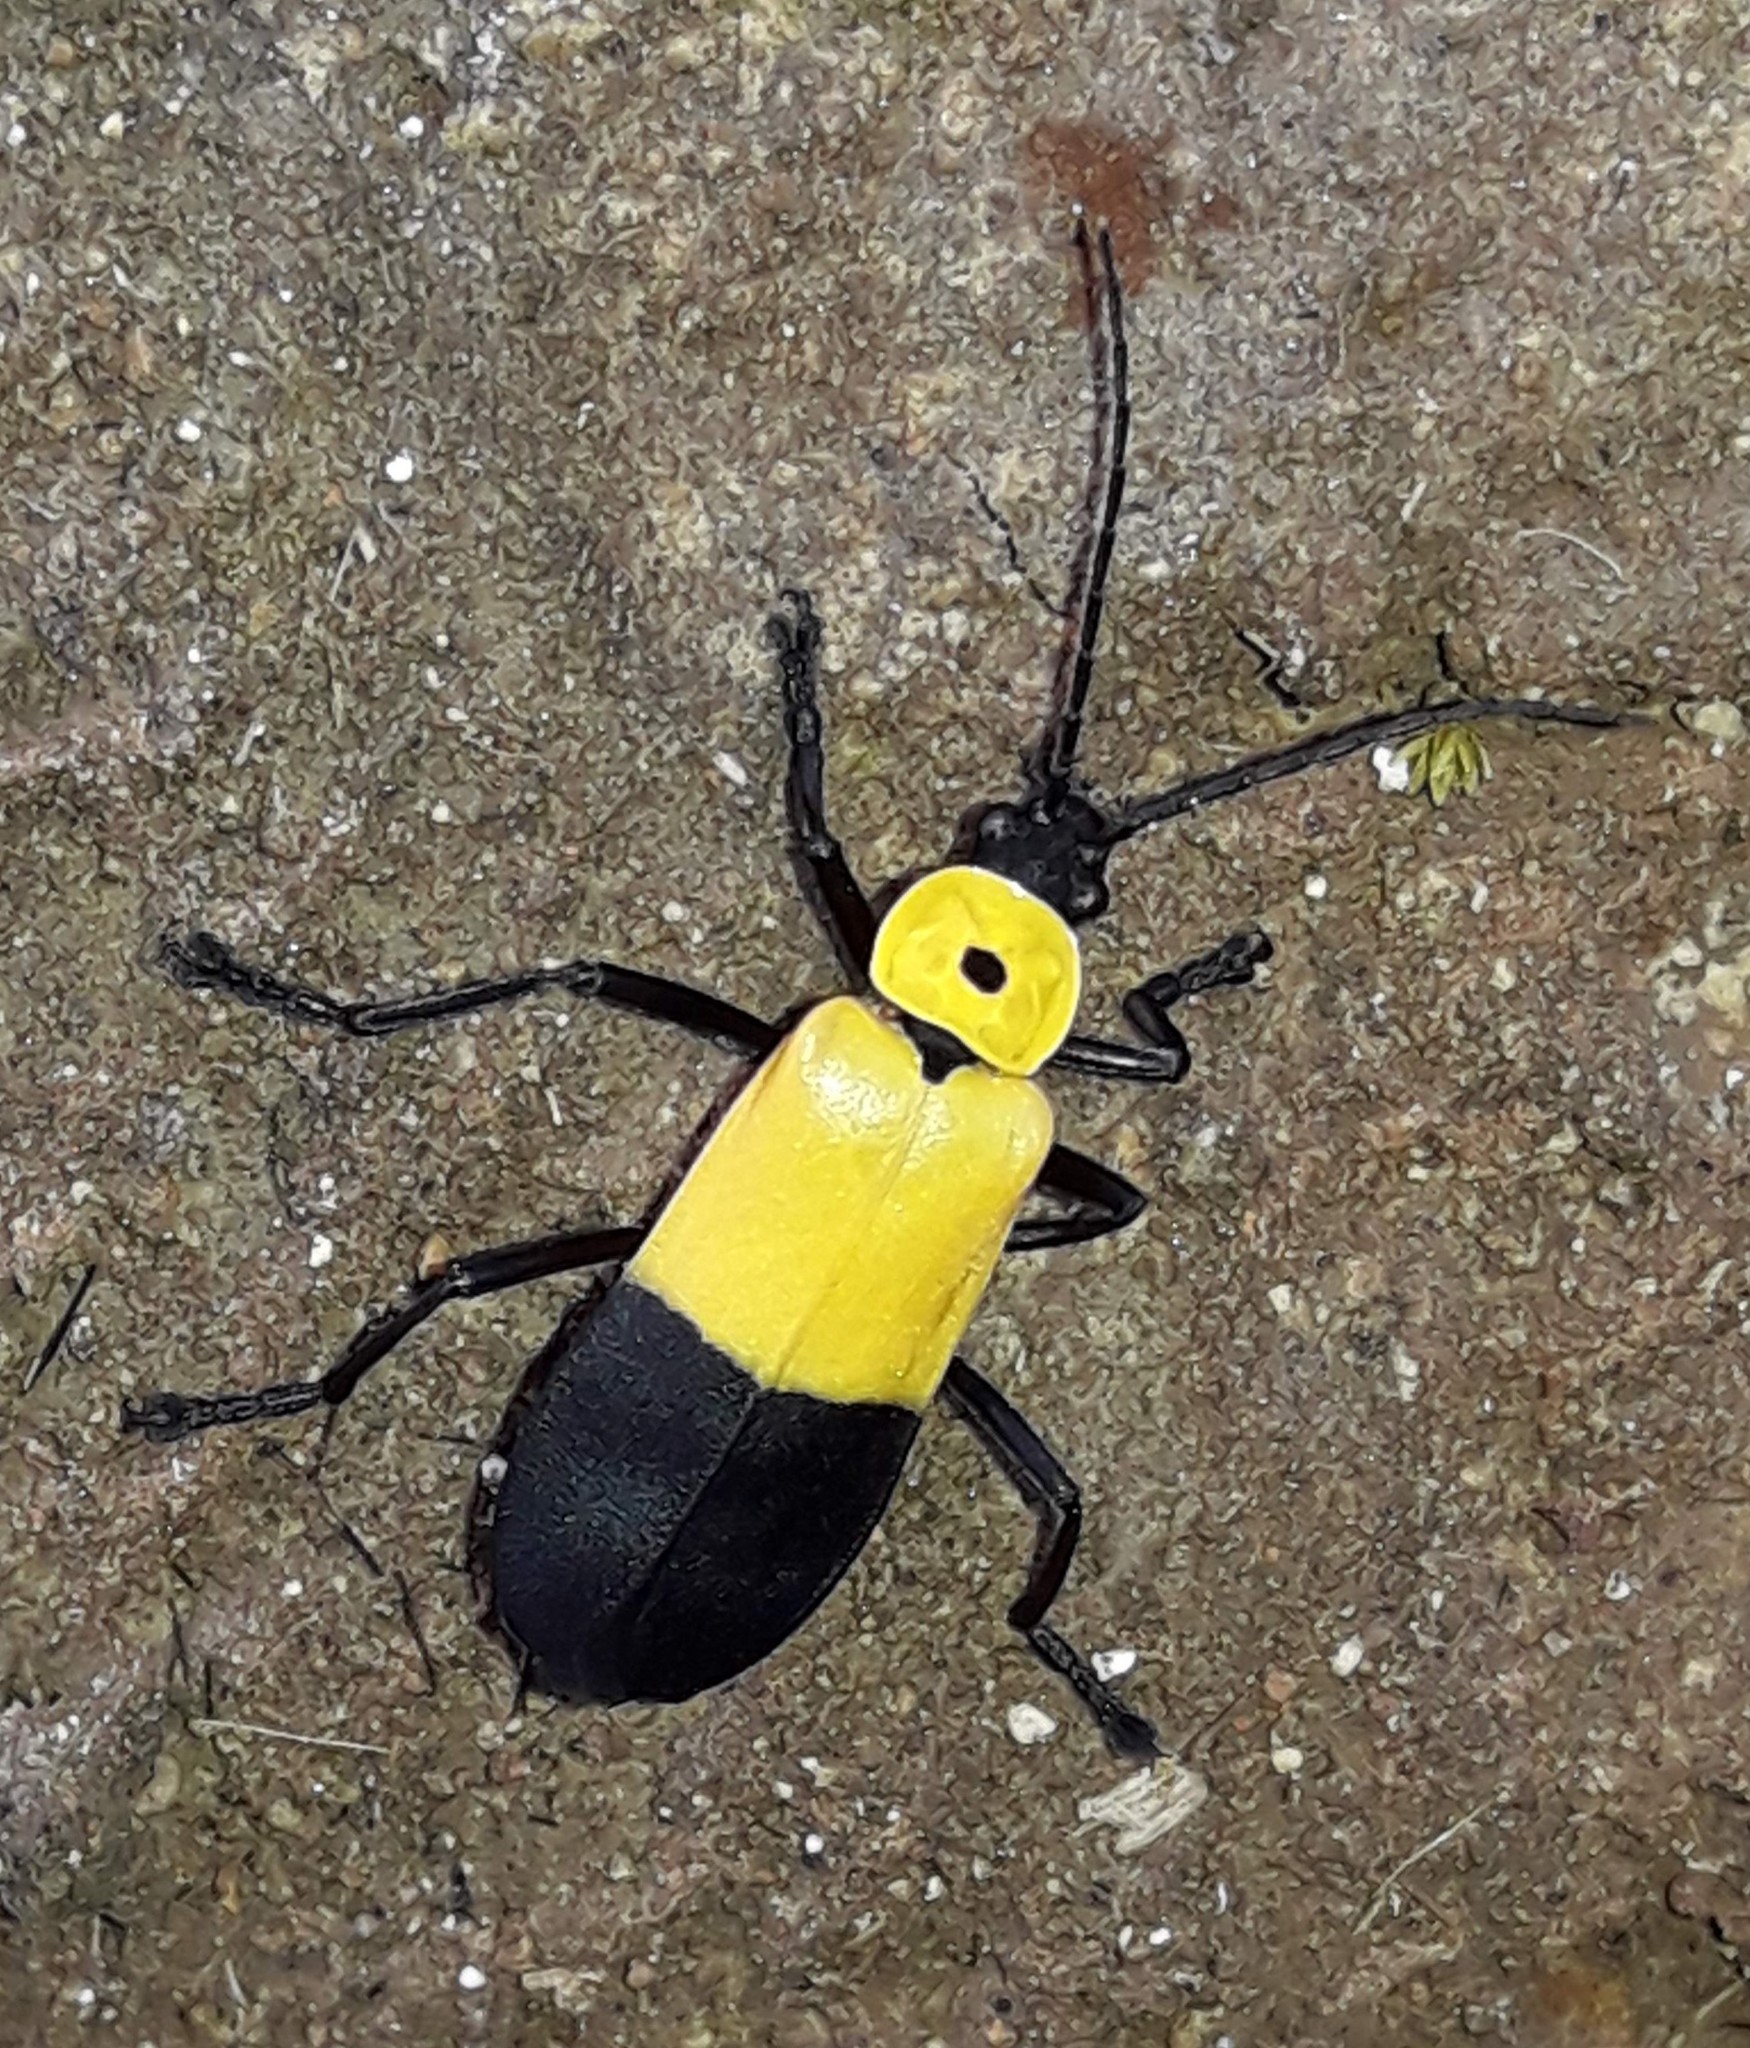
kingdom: Animalia
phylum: Arthropoda
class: Insecta
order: Coleoptera
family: Cantharidae
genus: Chauliognathus
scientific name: Chauliognathus
